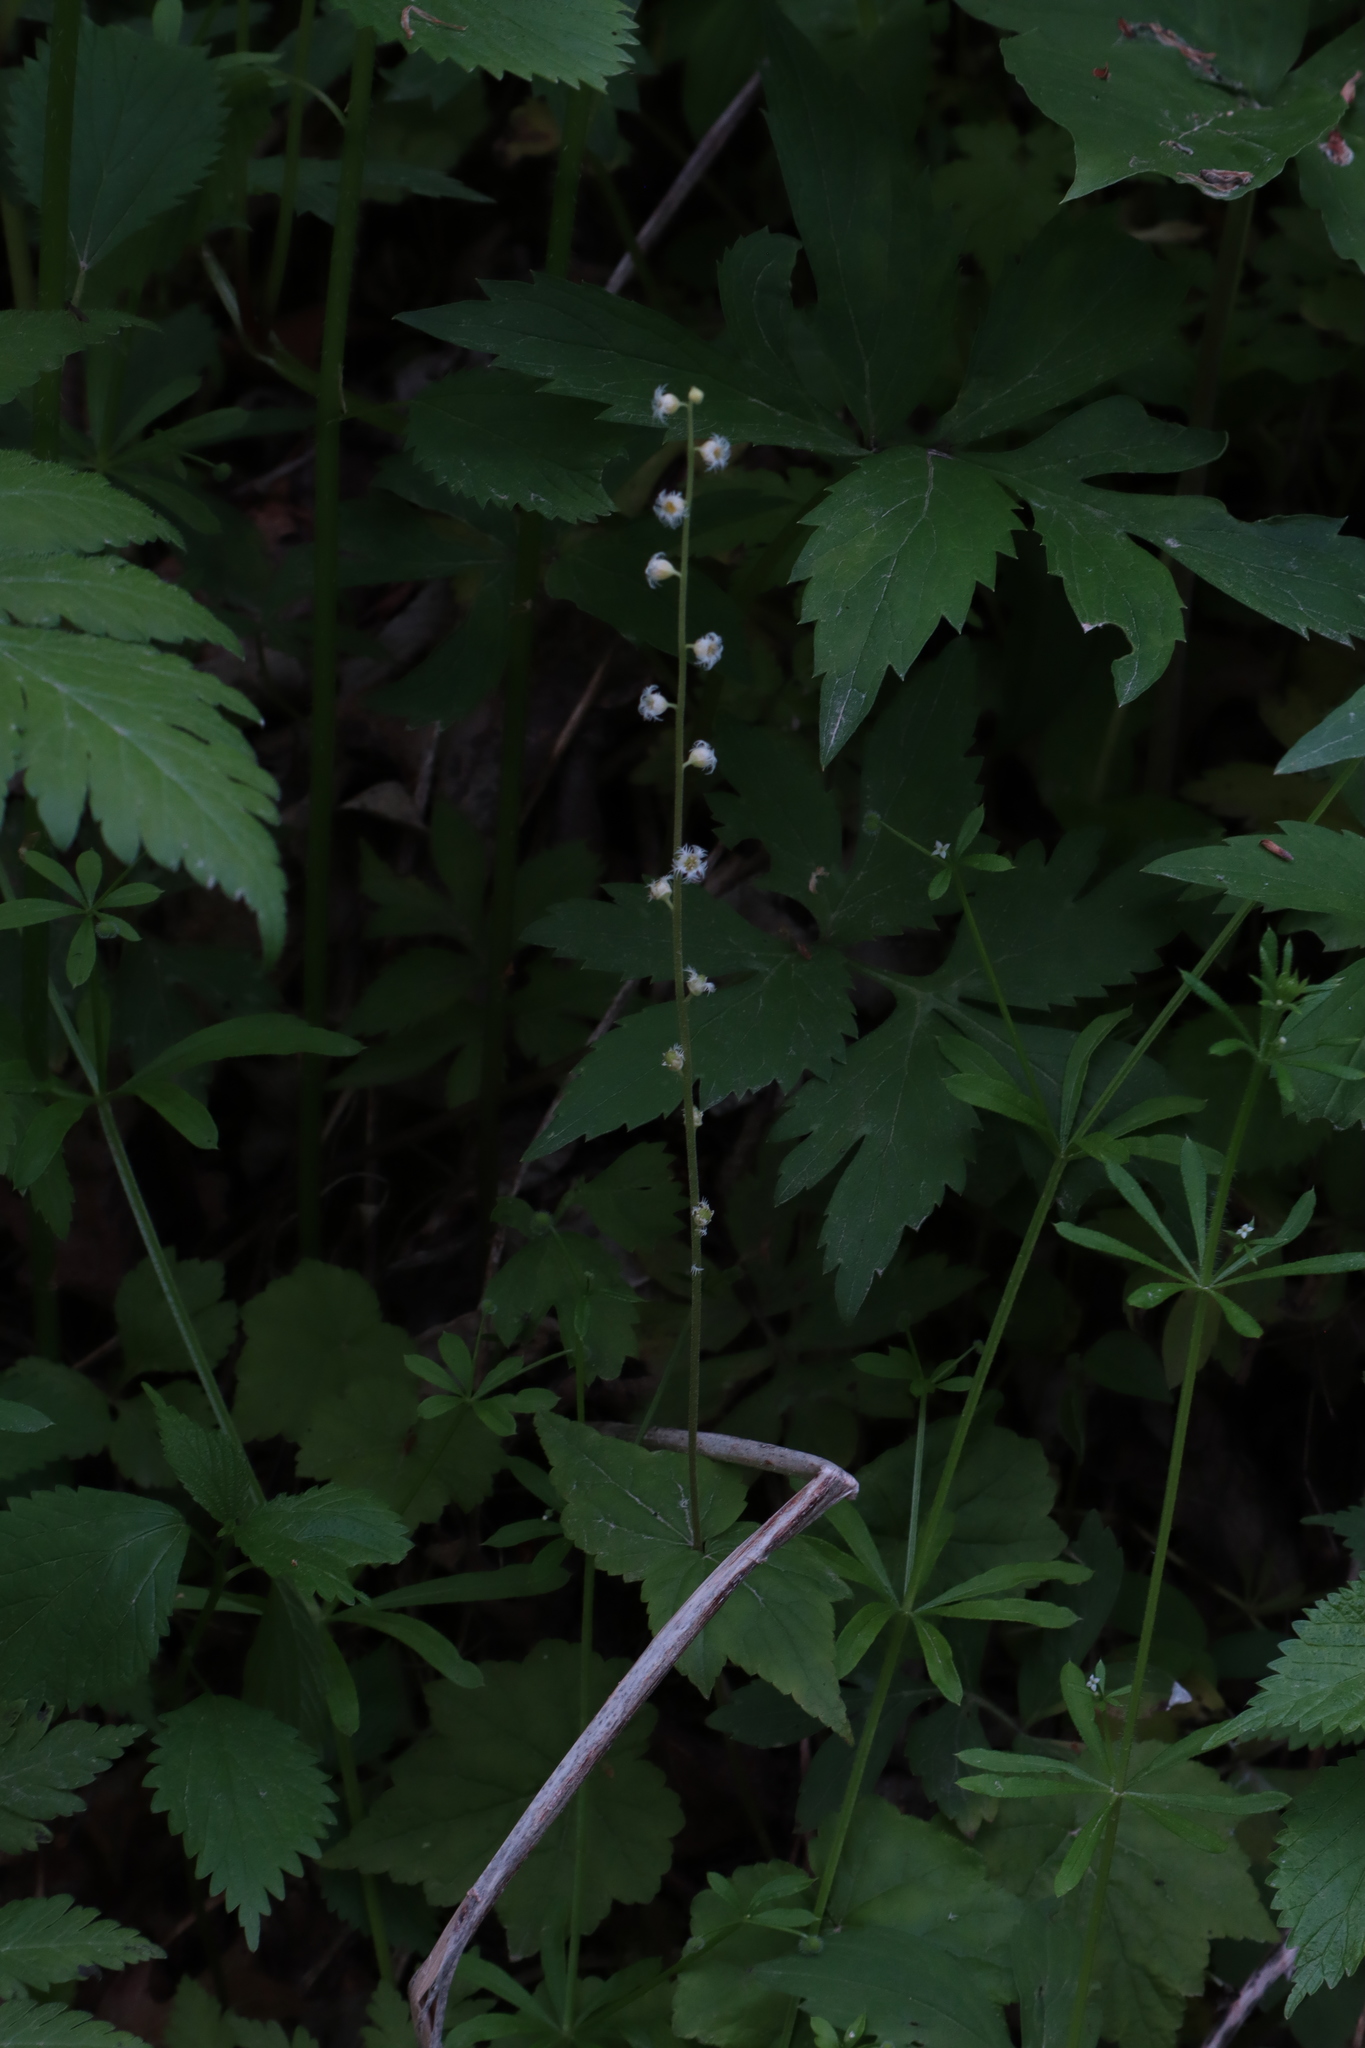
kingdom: Plantae
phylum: Tracheophyta
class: Magnoliopsida
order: Saxifragales
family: Saxifragaceae
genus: Mitella
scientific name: Mitella diphylla
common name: Coolwort
